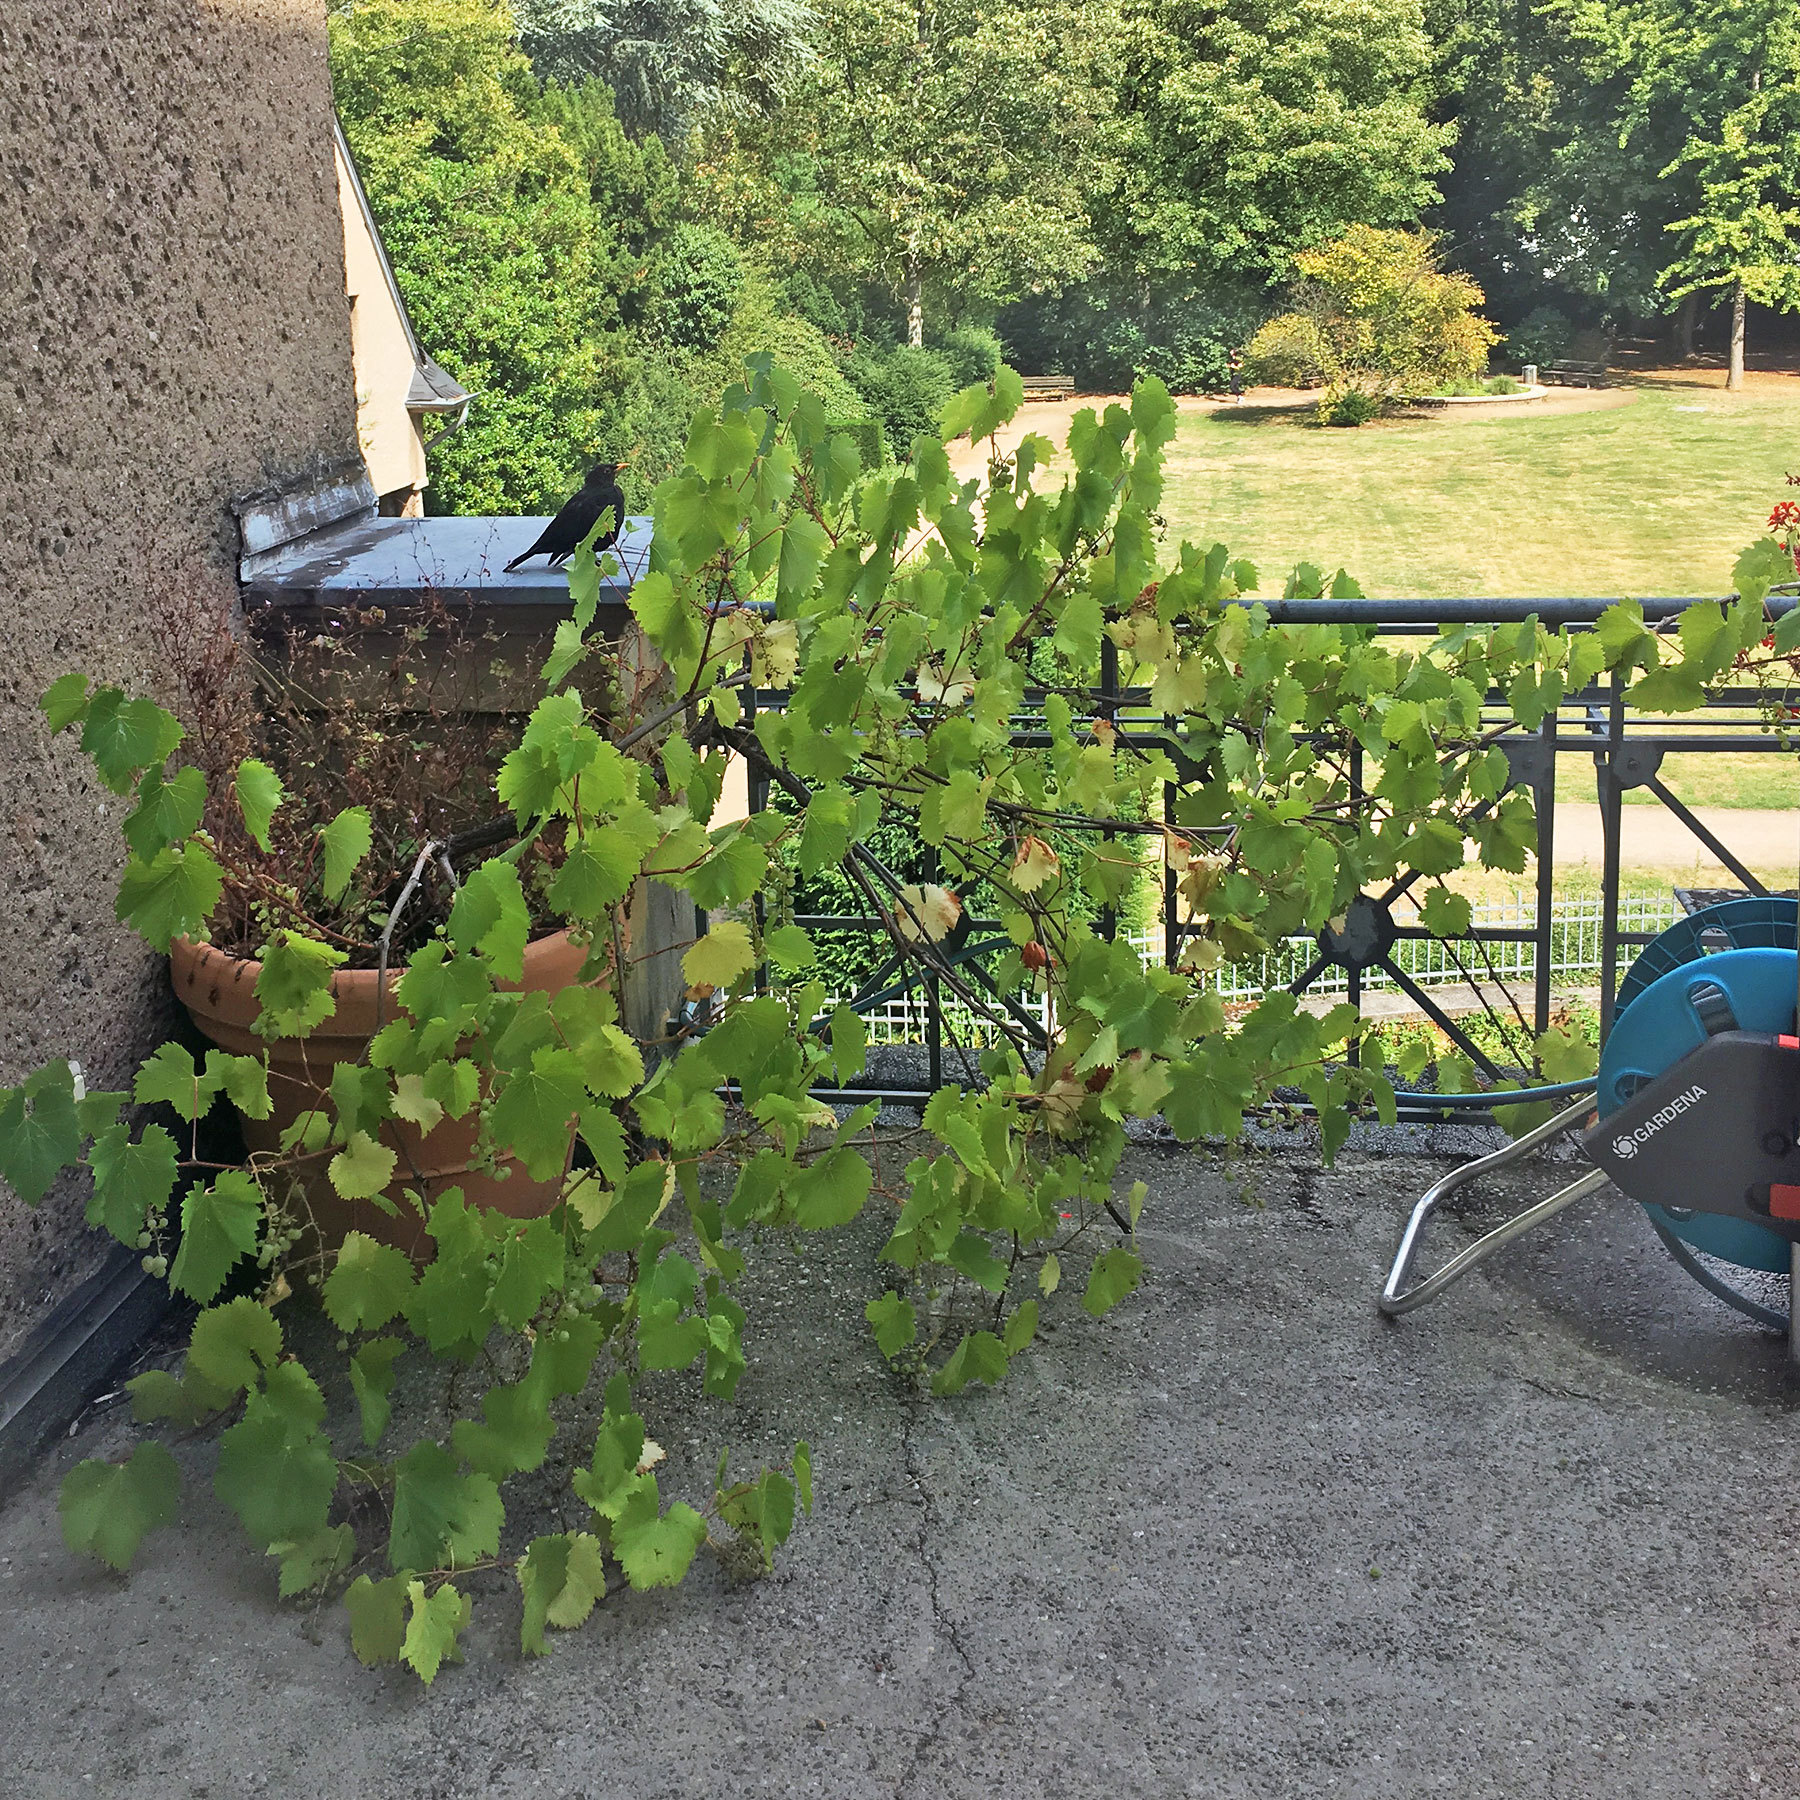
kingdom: Animalia
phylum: Chordata
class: Aves
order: Passeriformes
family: Turdidae
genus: Turdus
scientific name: Turdus merula
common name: Common blackbird
